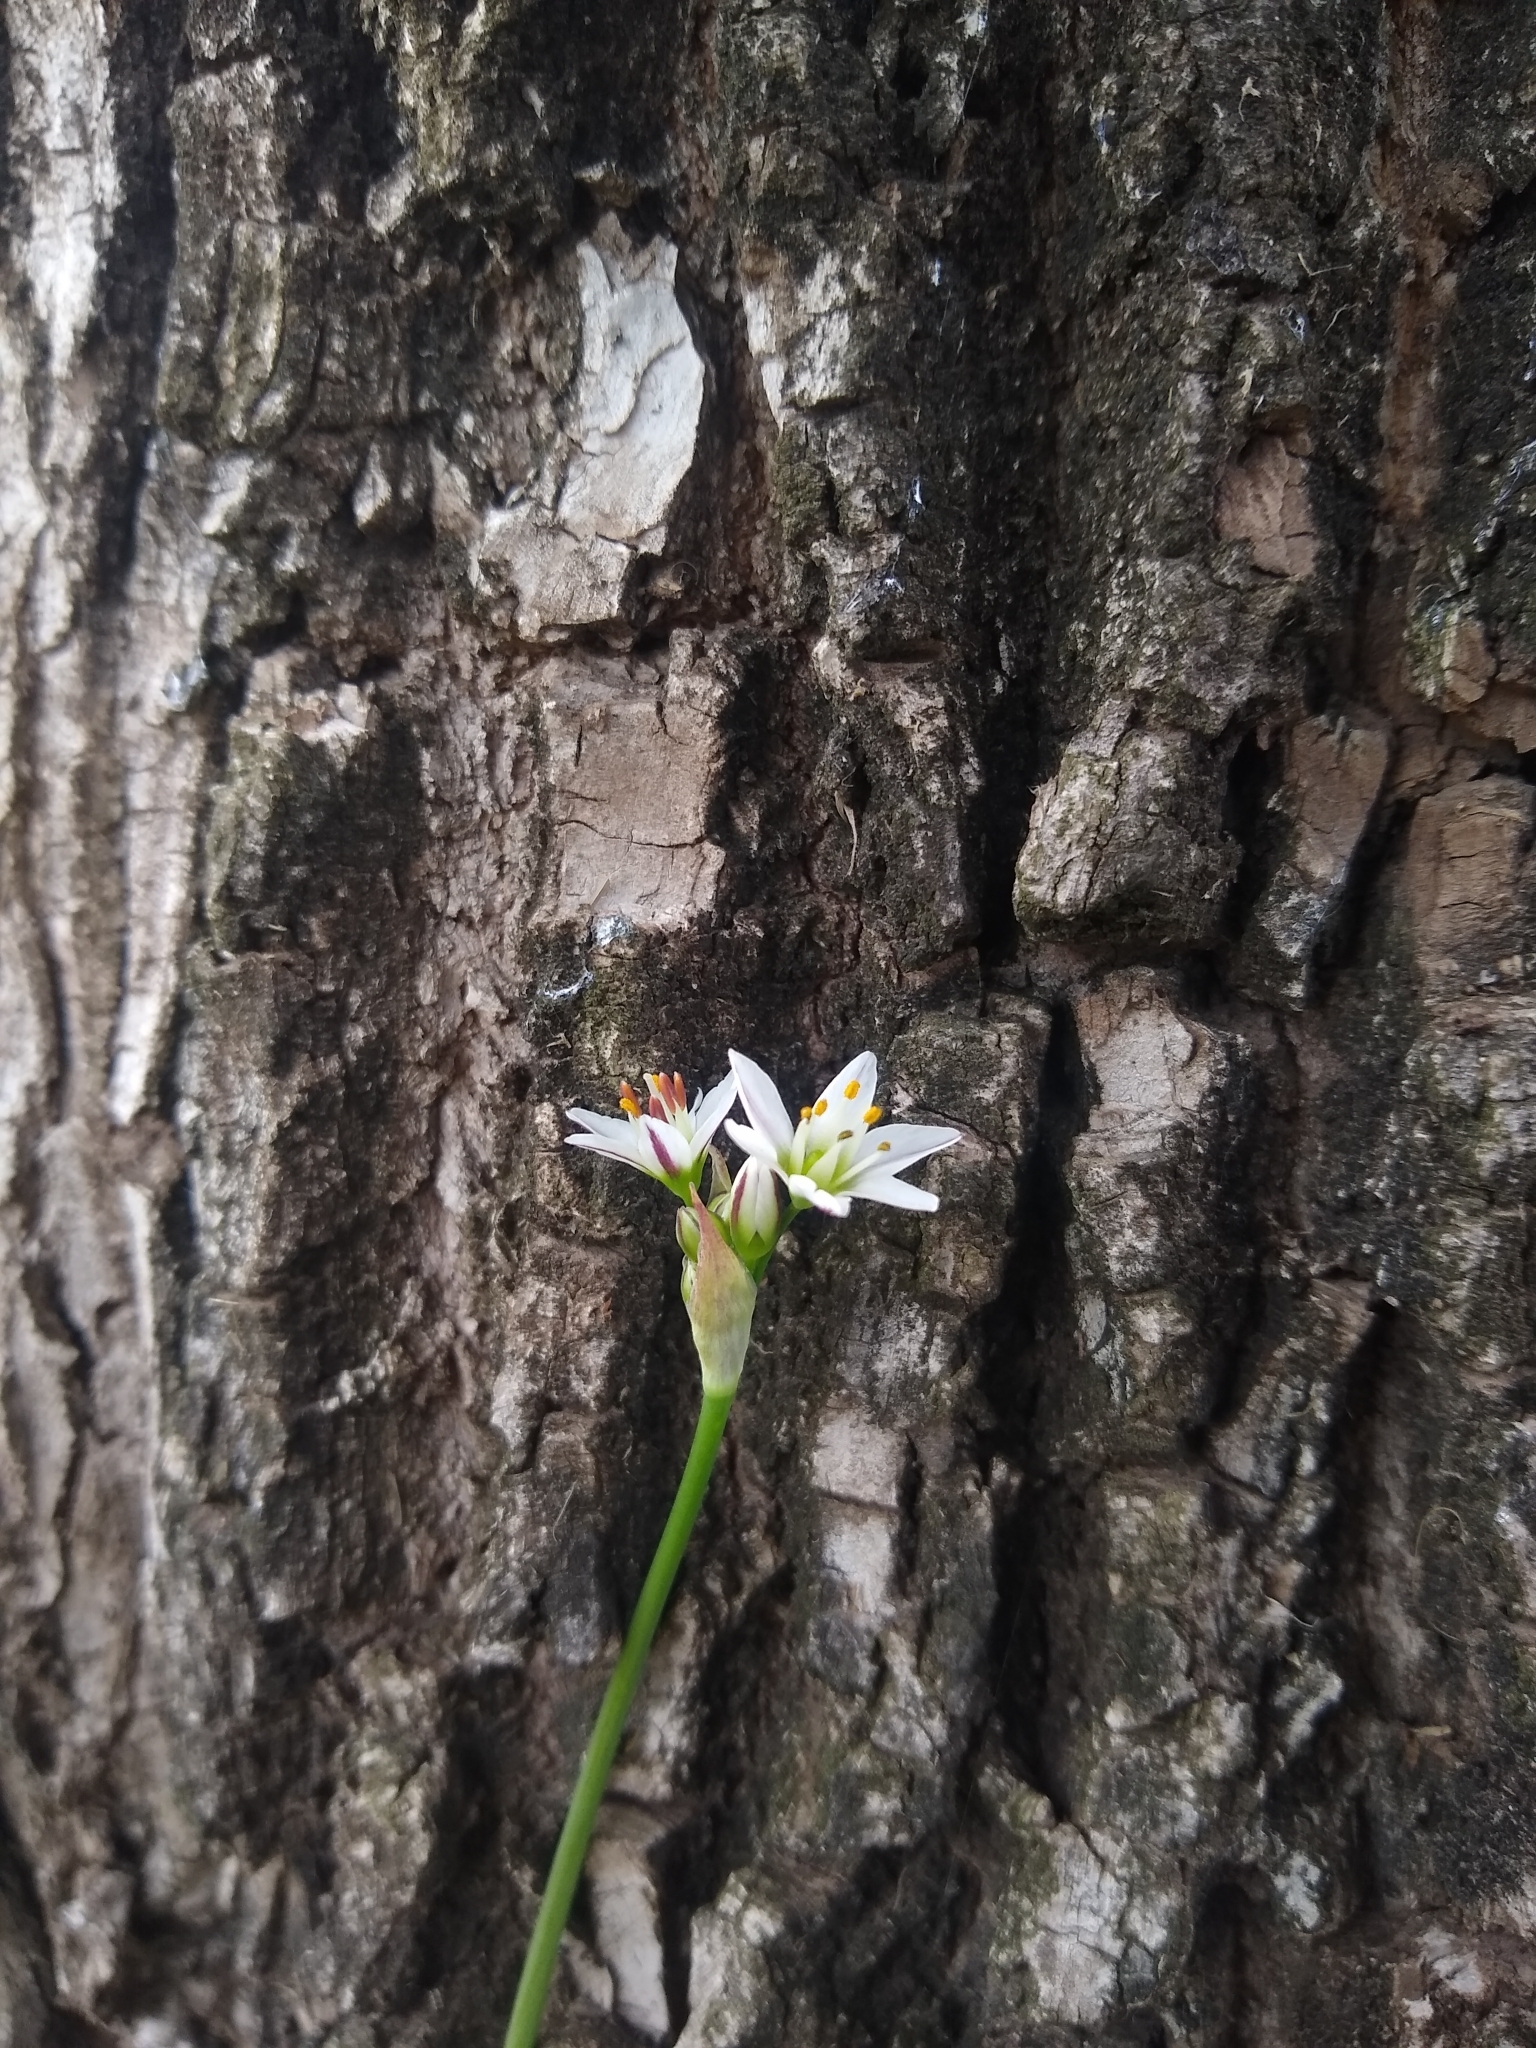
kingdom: Plantae
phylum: Tracheophyta
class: Liliopsida
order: Asparagales
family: Amaryllidaceae
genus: Nothoscordum
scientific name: Nothoscordum gracile
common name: Slender false garlic
